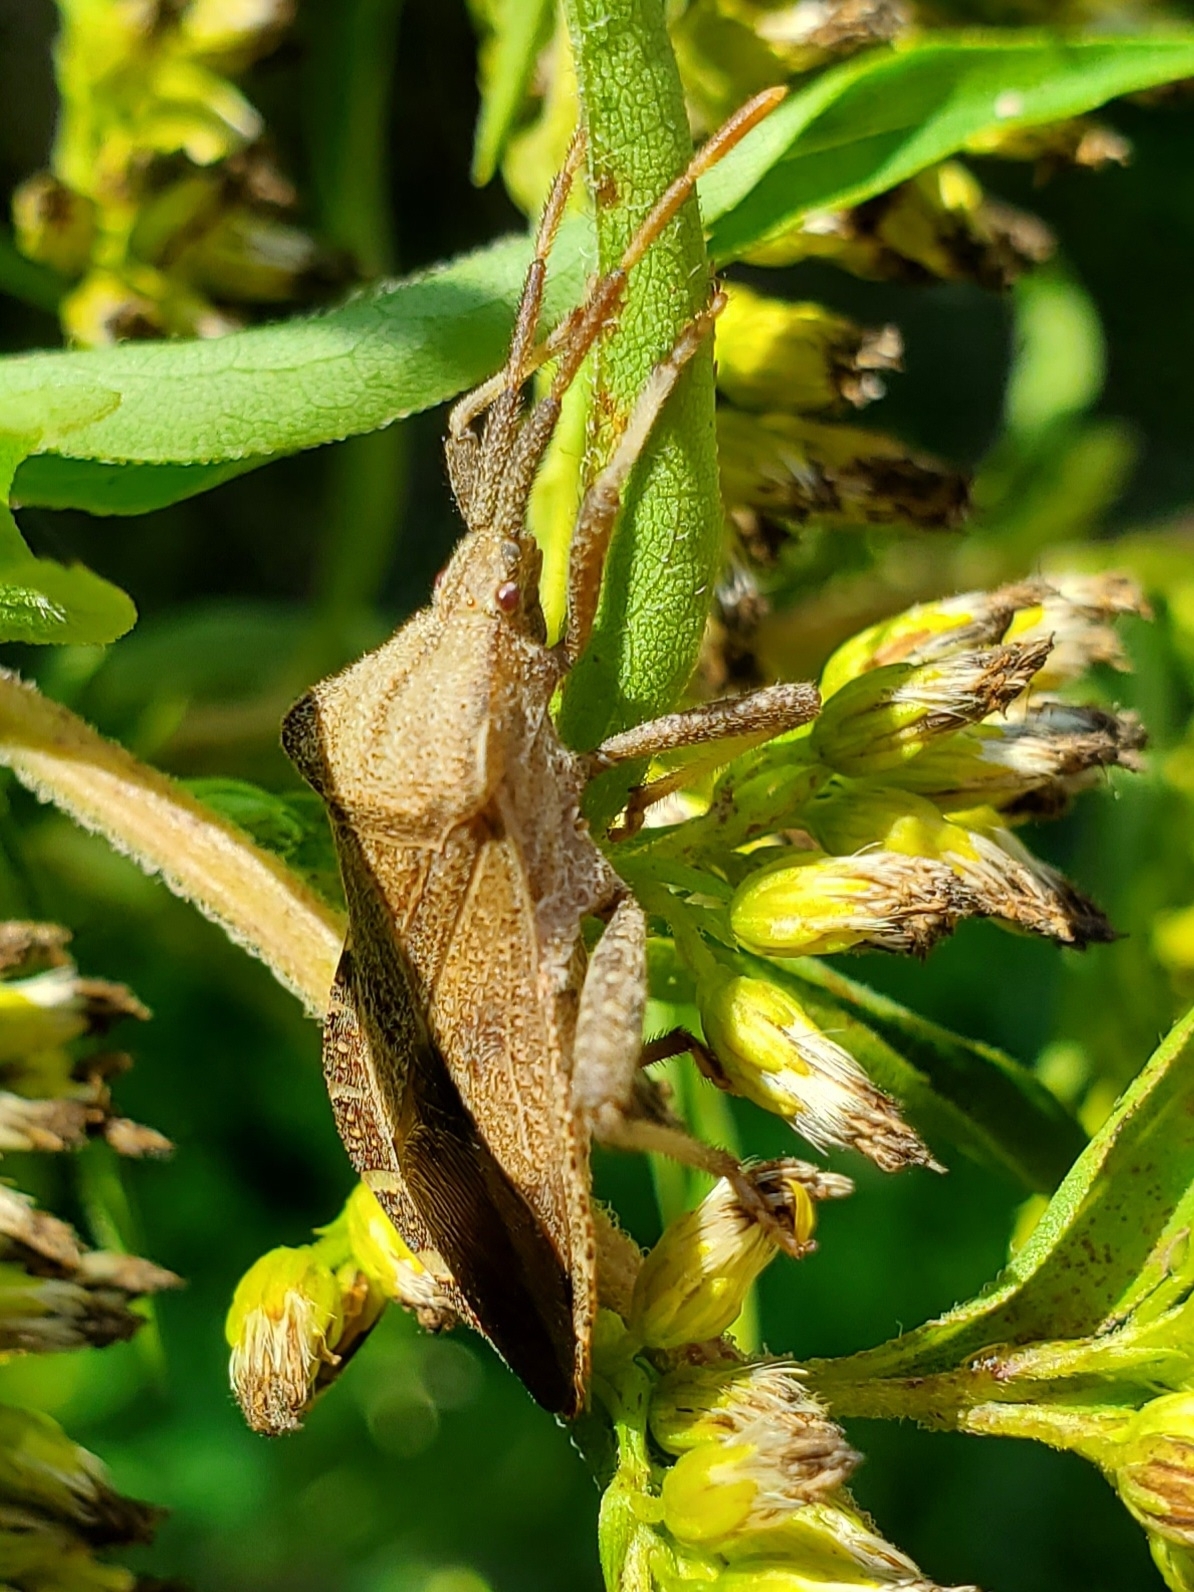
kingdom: Animalia
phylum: Arthropoda
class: Insecta
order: Hemiptera
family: Coreidae
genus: Piezogaster
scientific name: Piezogaster calcarator
